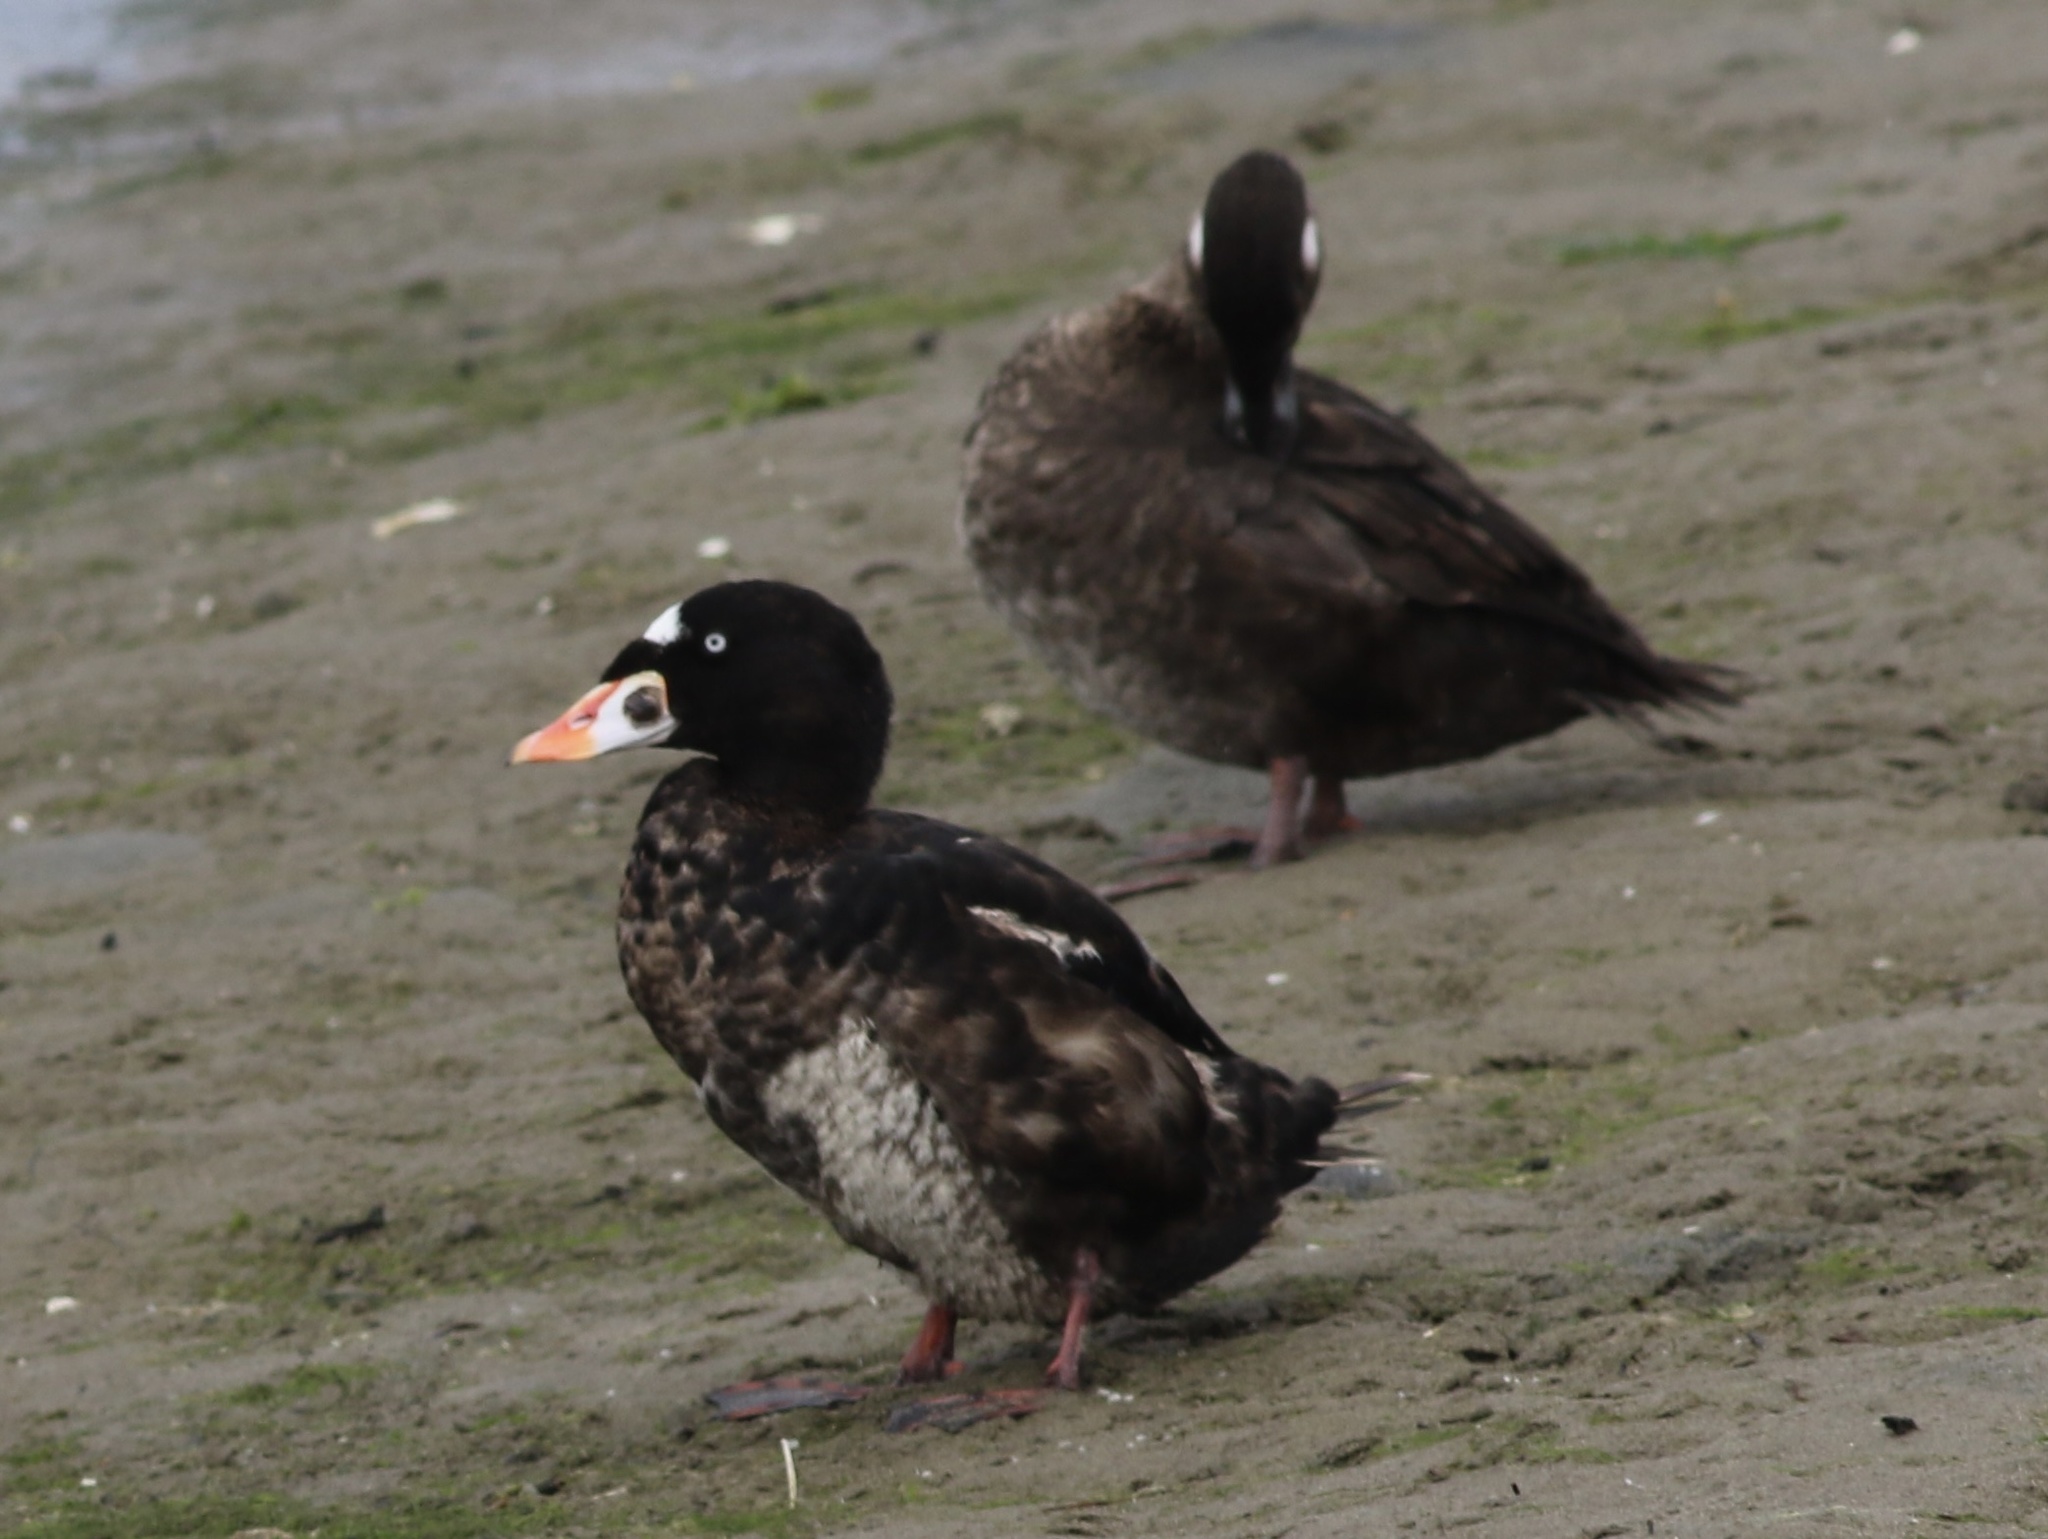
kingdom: Animalia
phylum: Chordata
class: Aves
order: Anseriformes
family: Anatidae
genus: Melanitta
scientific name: Melanitta perspicillata
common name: Surf scoter
